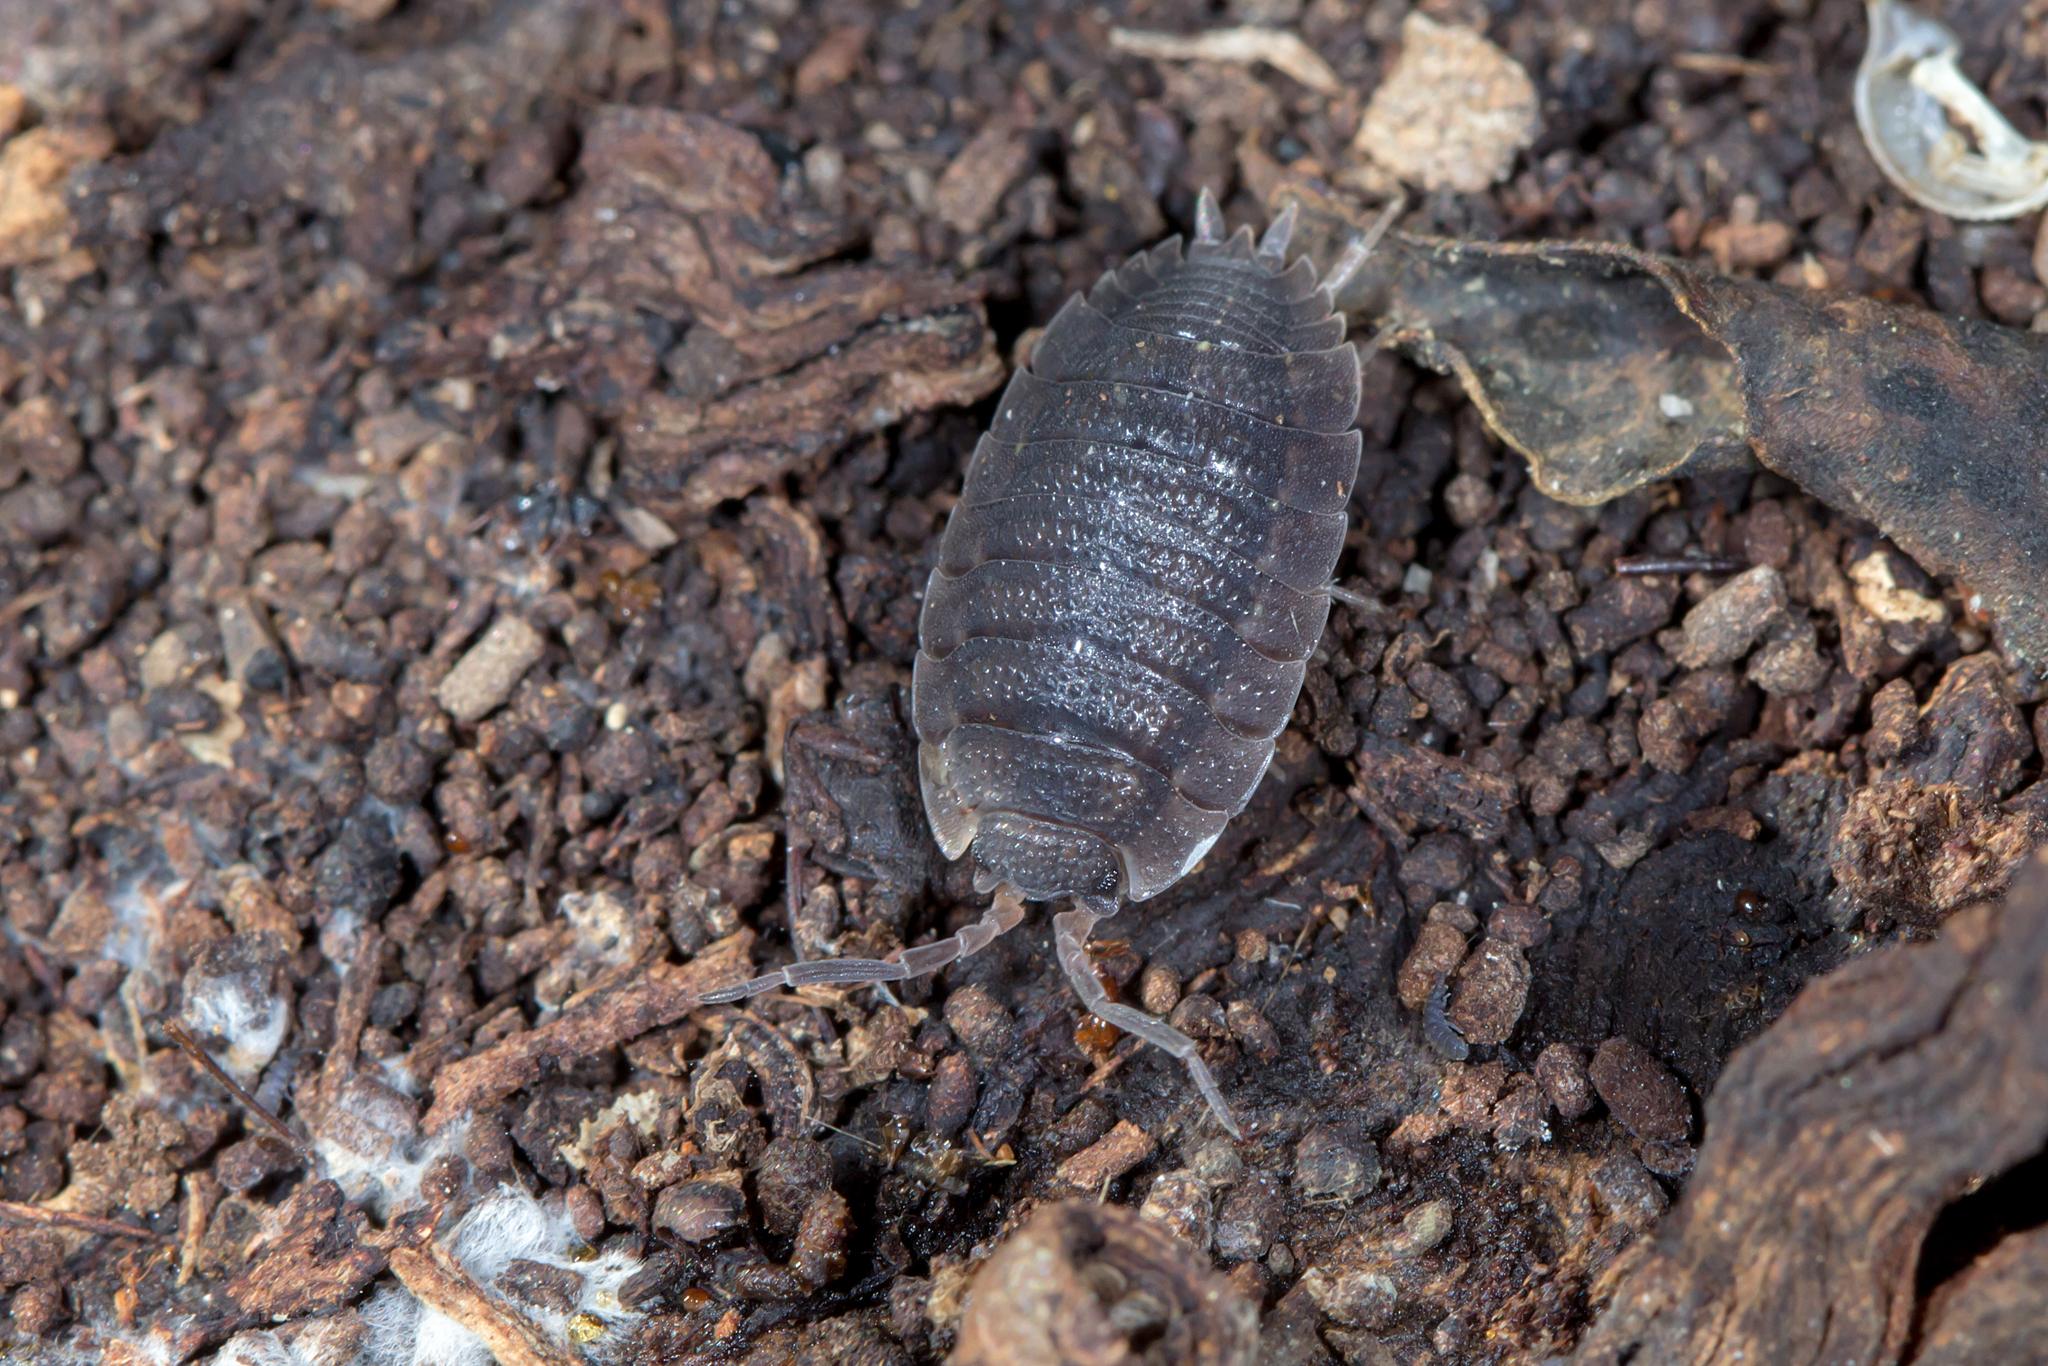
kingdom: Animalia
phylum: Arthropoda
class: Malacostraca
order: Isopoda
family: Porcellionidae
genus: Porcellio
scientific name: Porcellio scaber
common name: Common rough woodlouse
